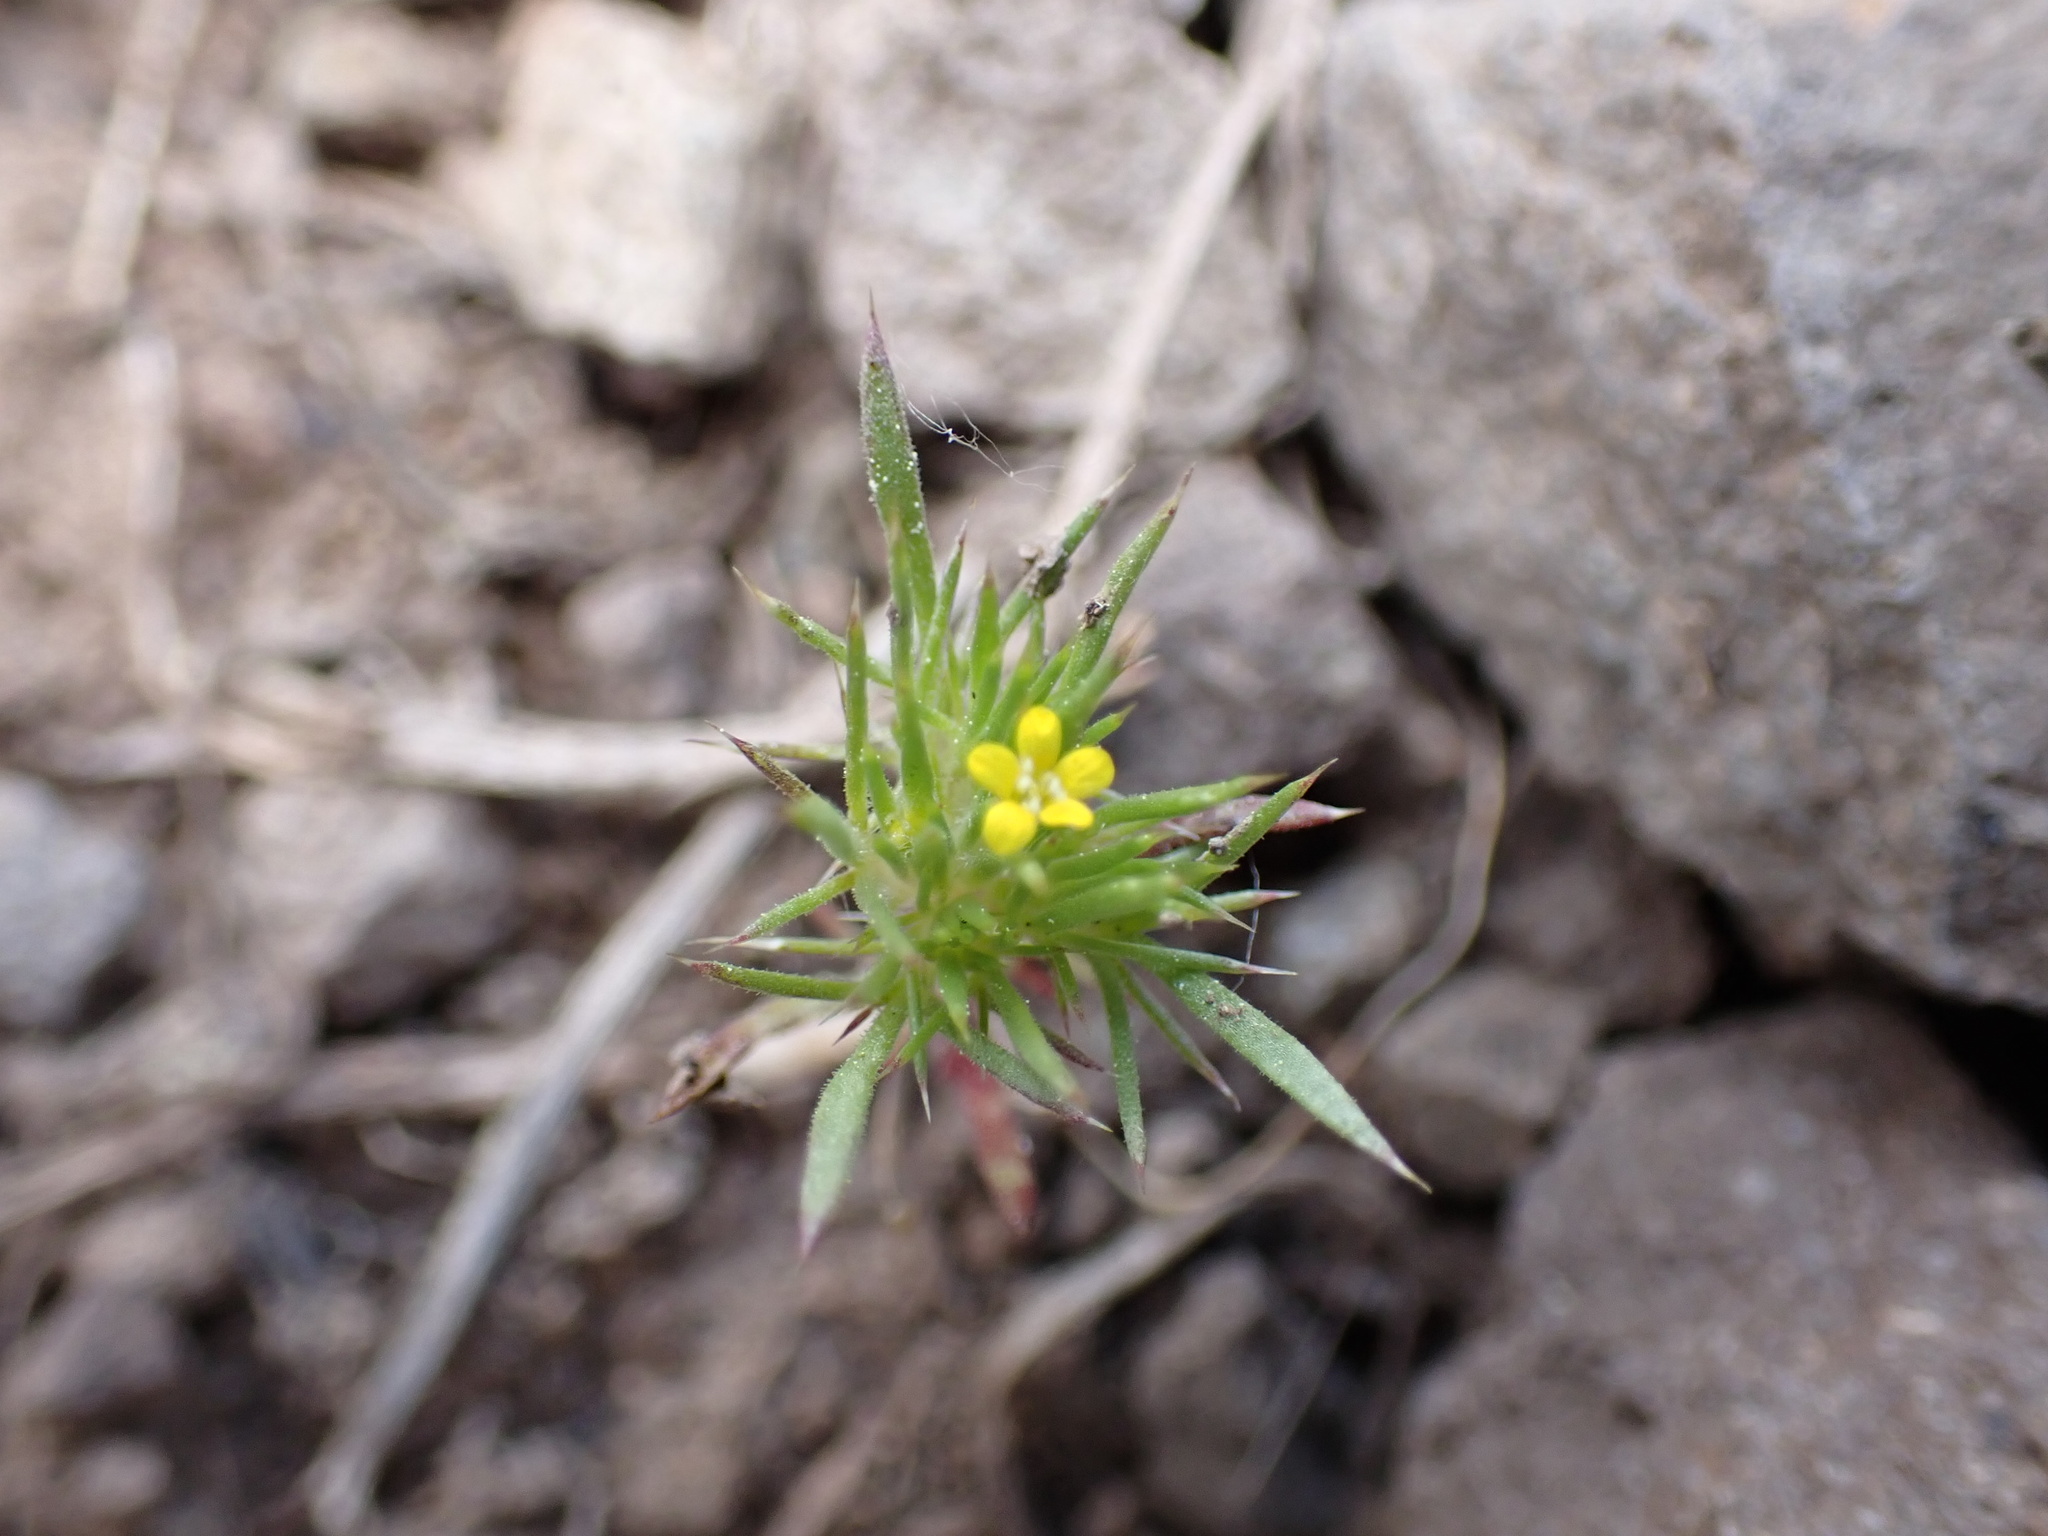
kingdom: Plantae
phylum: Tracheophyta
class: Magnoliopsida
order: Ericales
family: Polemoniaceae
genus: Navarretia
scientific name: Navarretia breweri
